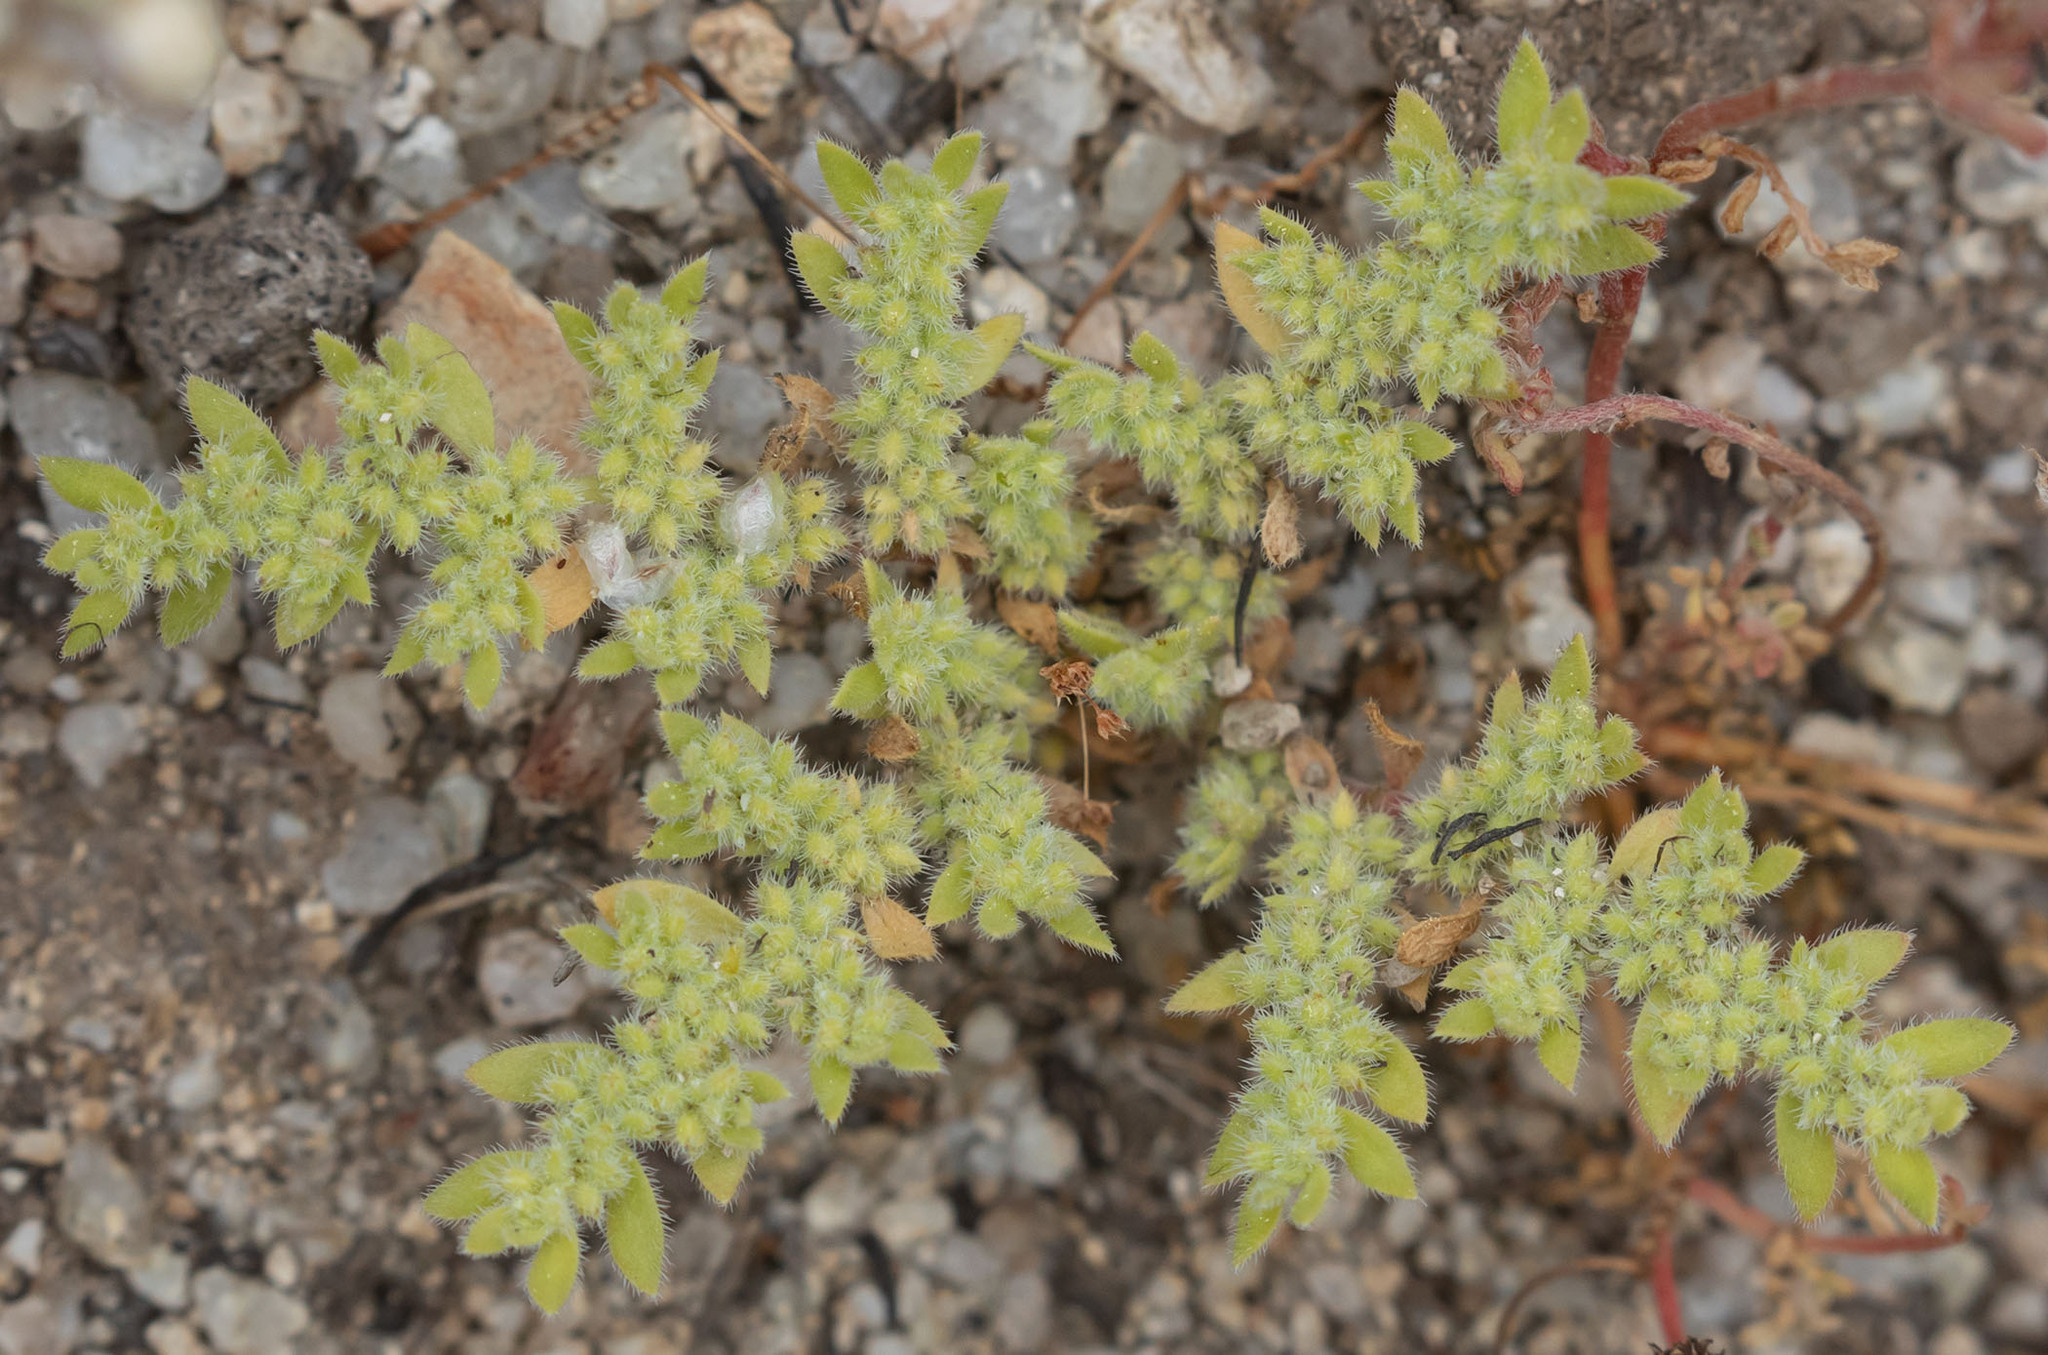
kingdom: Plantae
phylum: Tracheophyta
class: Magnoliopsida
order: Caryophyllales
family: Caryophyllaceae
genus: Herniaria
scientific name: Herniaria hirsuta
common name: Hairy rupturewort
